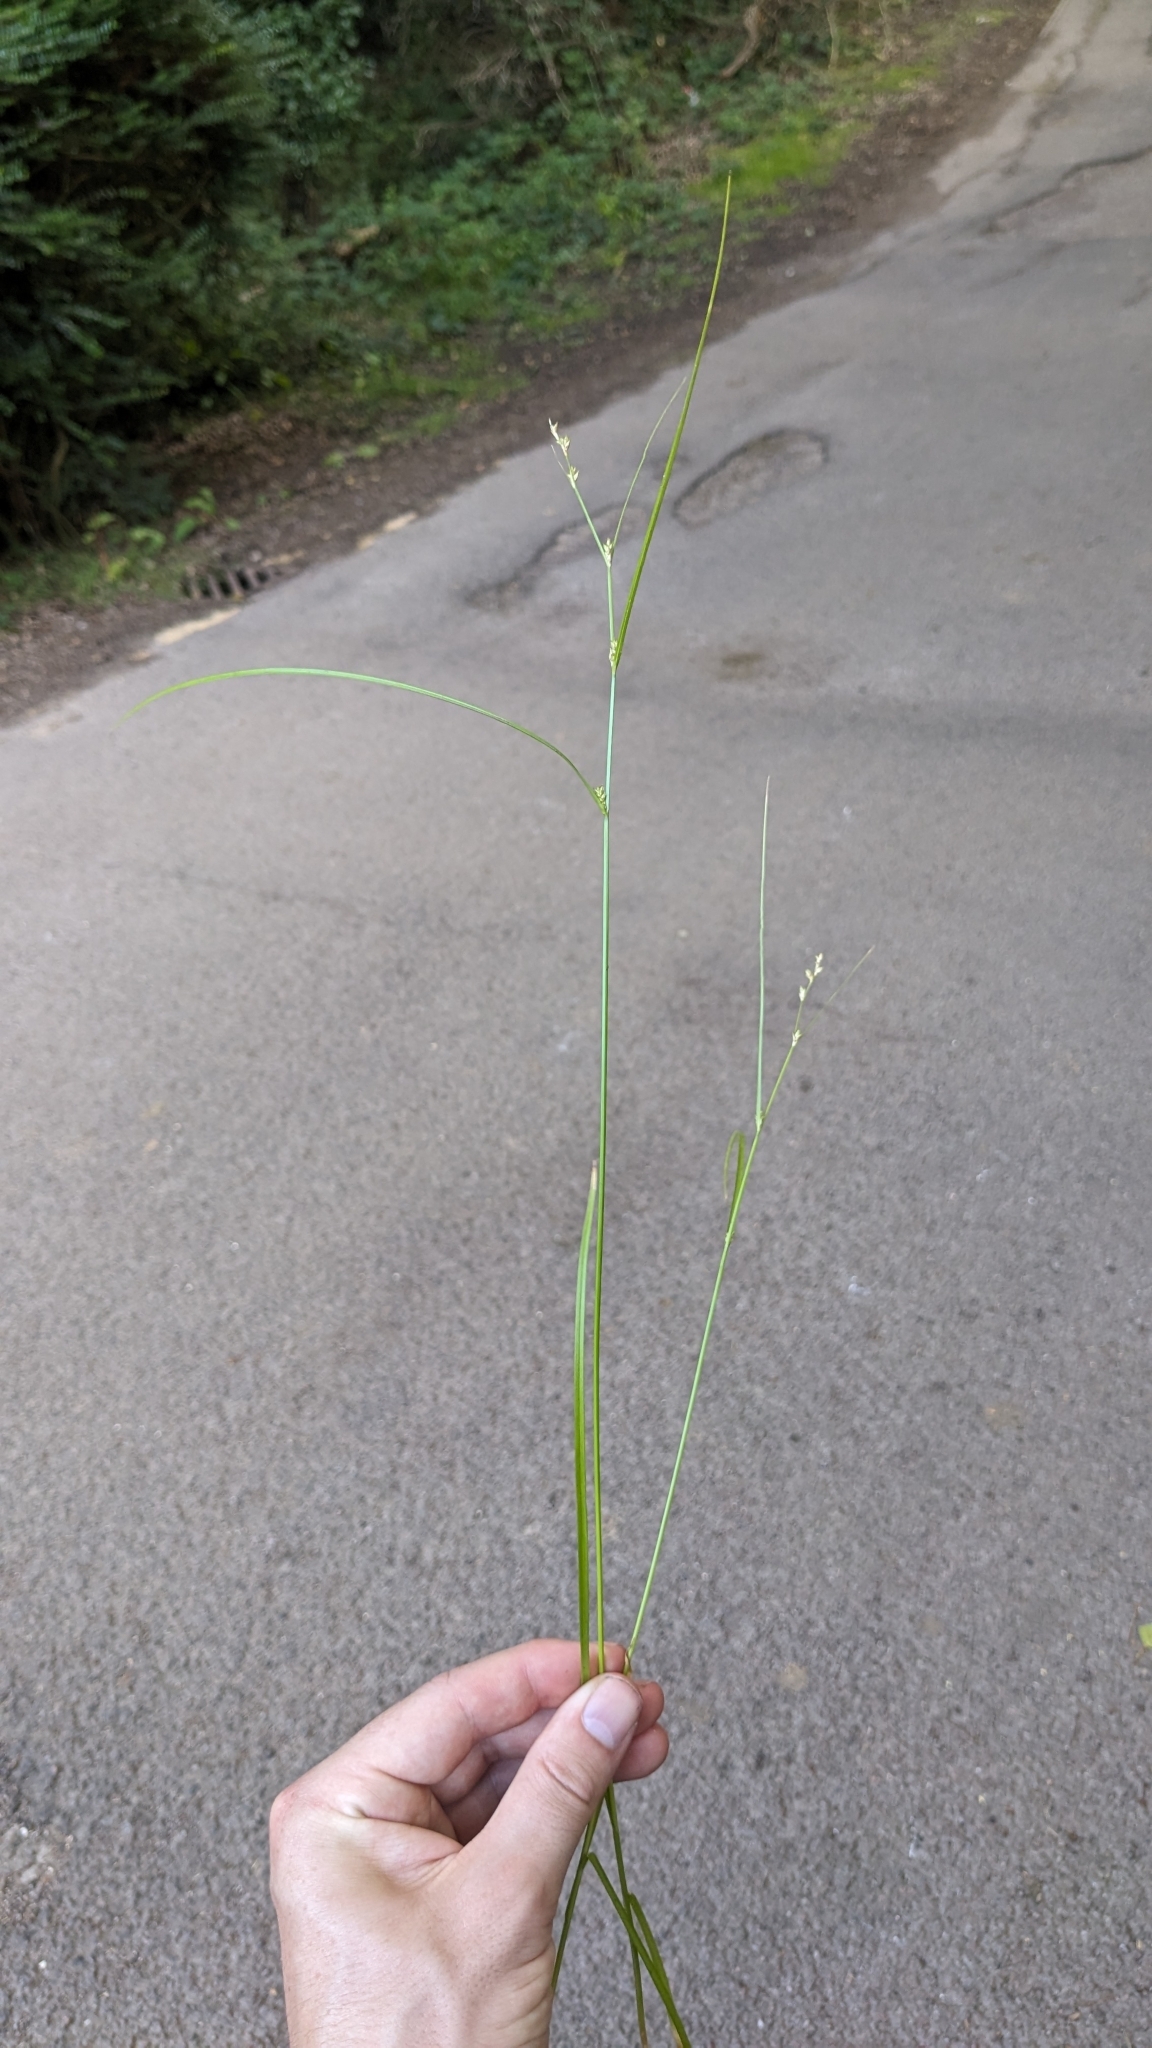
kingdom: Plantae
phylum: Tracheophyta
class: Liliopsida
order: Poales
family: Cyperaceae
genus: Carex
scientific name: Carex remota
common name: Remote sedge
